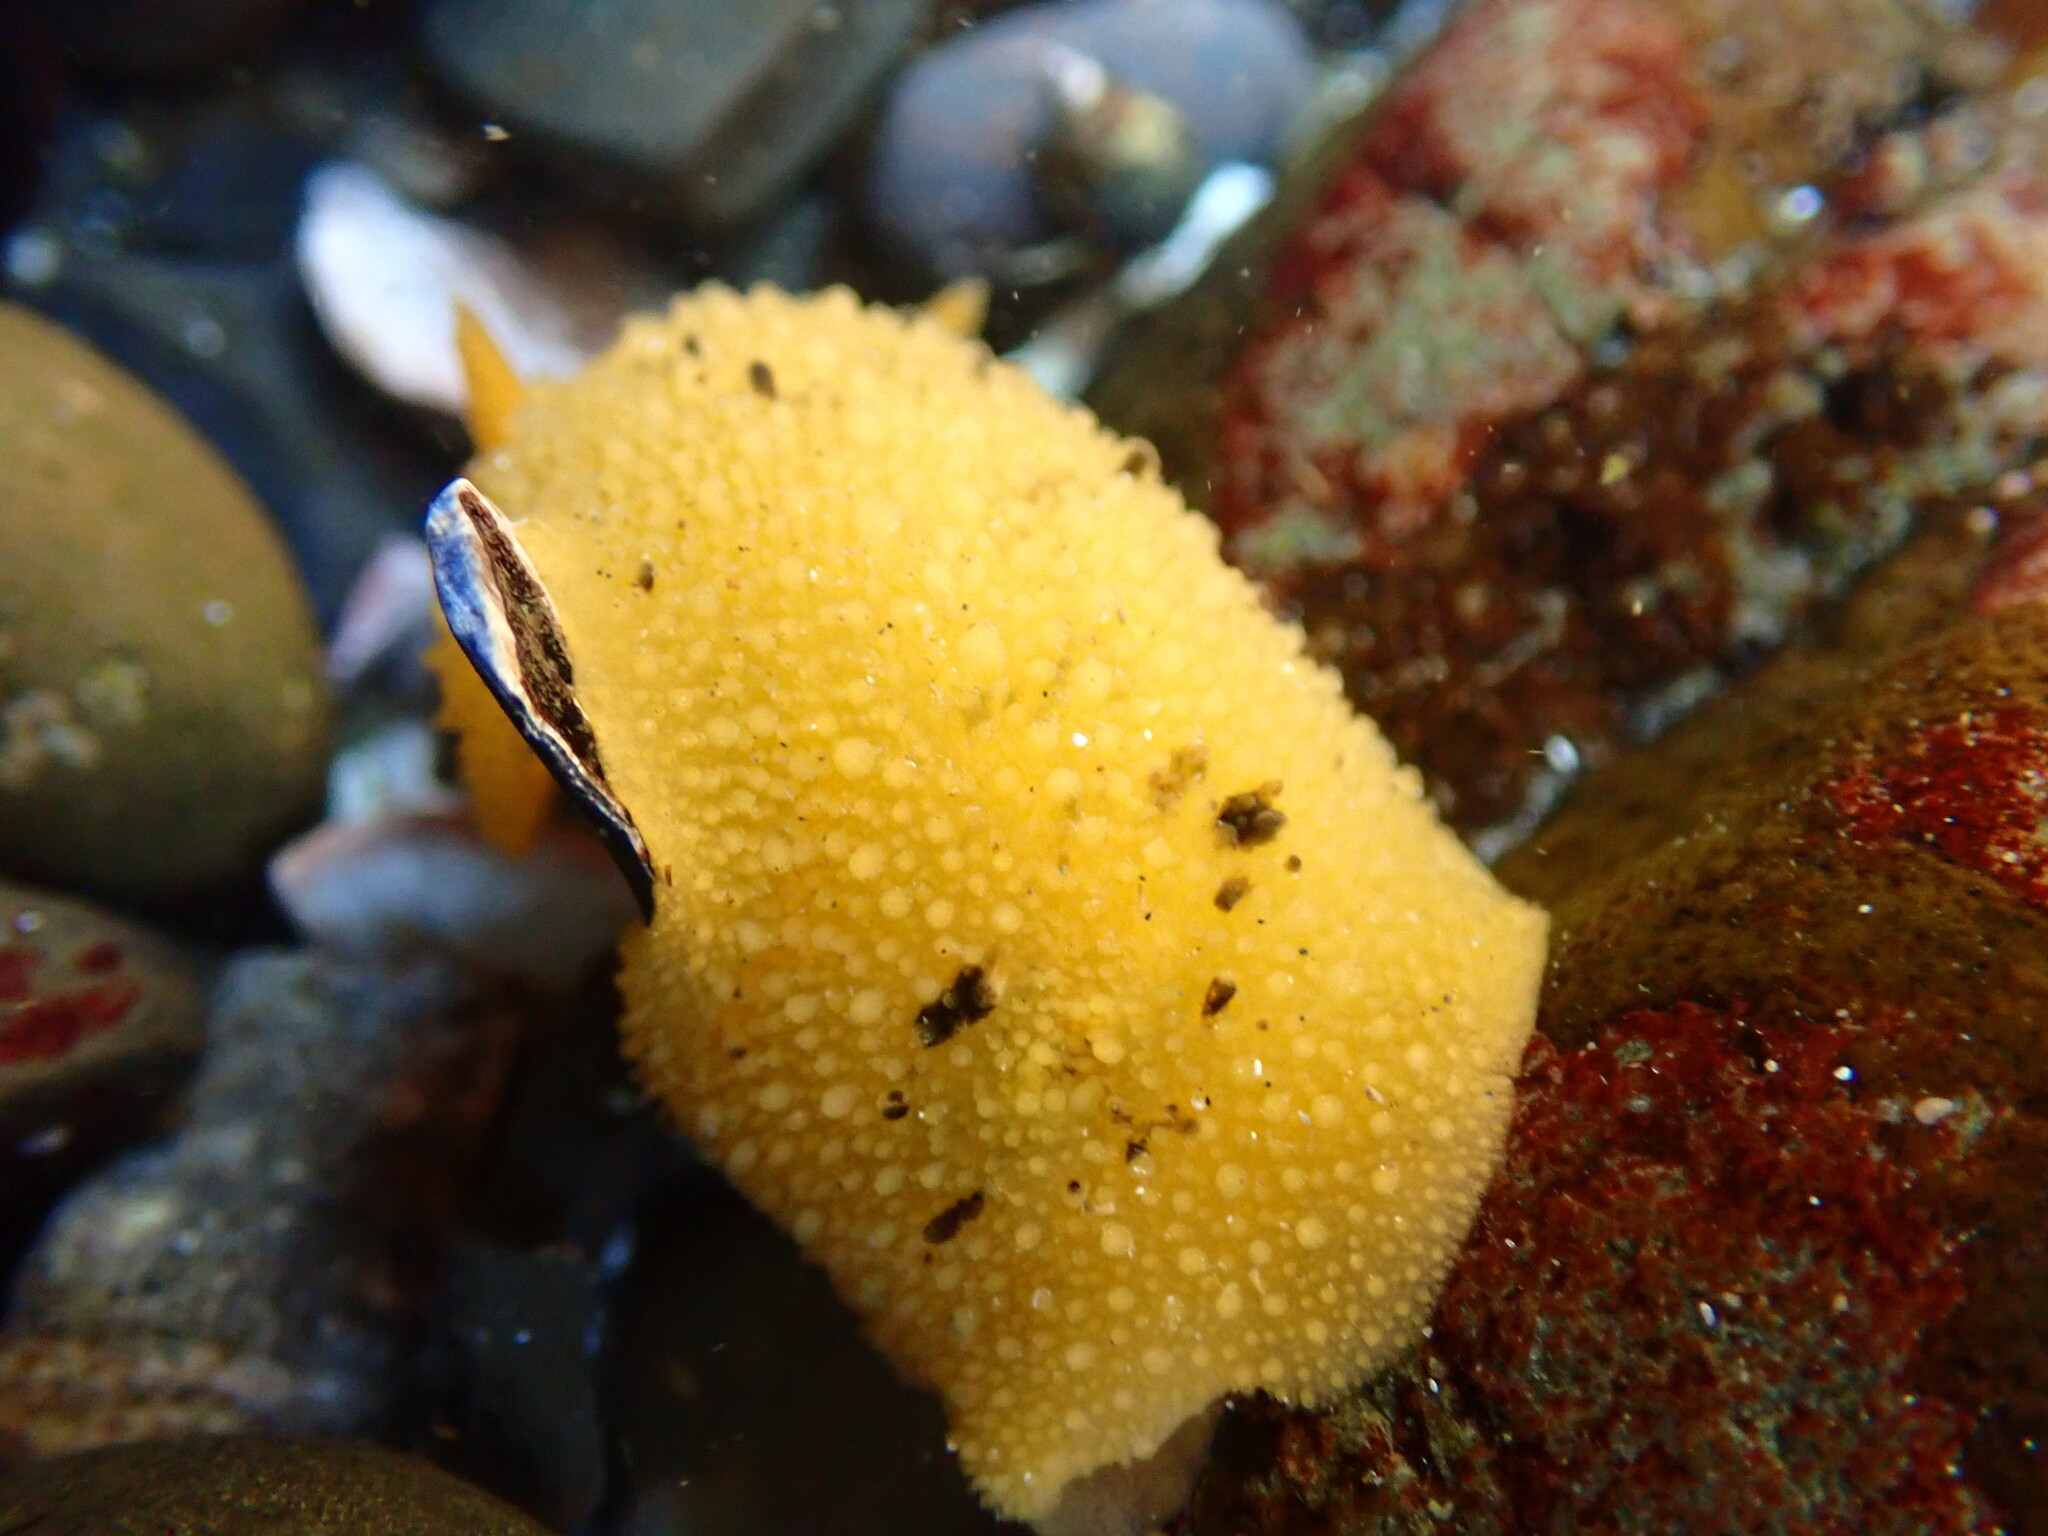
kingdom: Animalia
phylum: Mollusca
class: Gastropoda
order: Nudibranchia
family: Dorididae
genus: Doris
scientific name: Doris montereyensis
